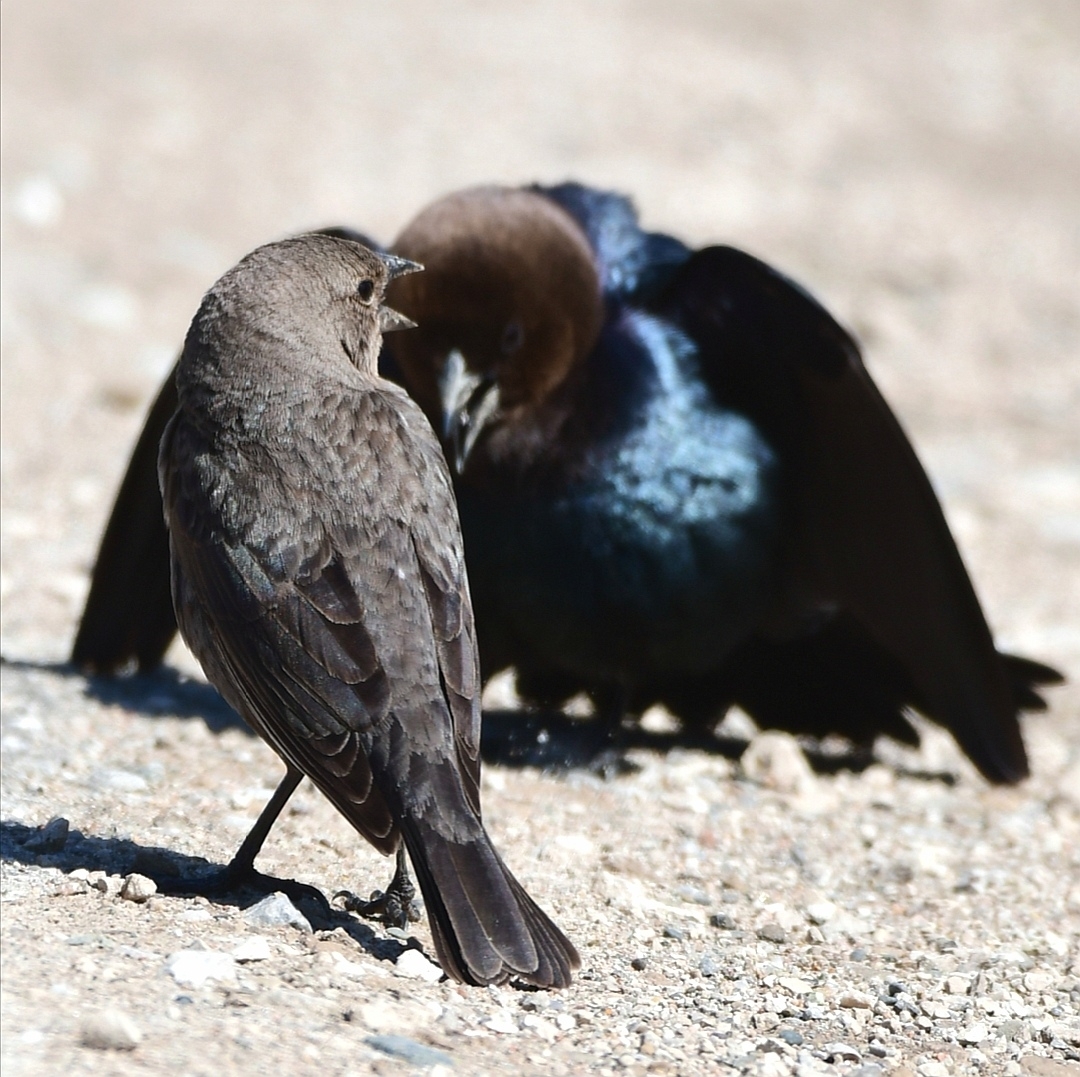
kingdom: Animalia
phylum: Chordata
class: Aves
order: Passeriformes
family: Icteridae
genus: Molothrus
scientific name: Molothrus ater
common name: Brown-headed cowbird
